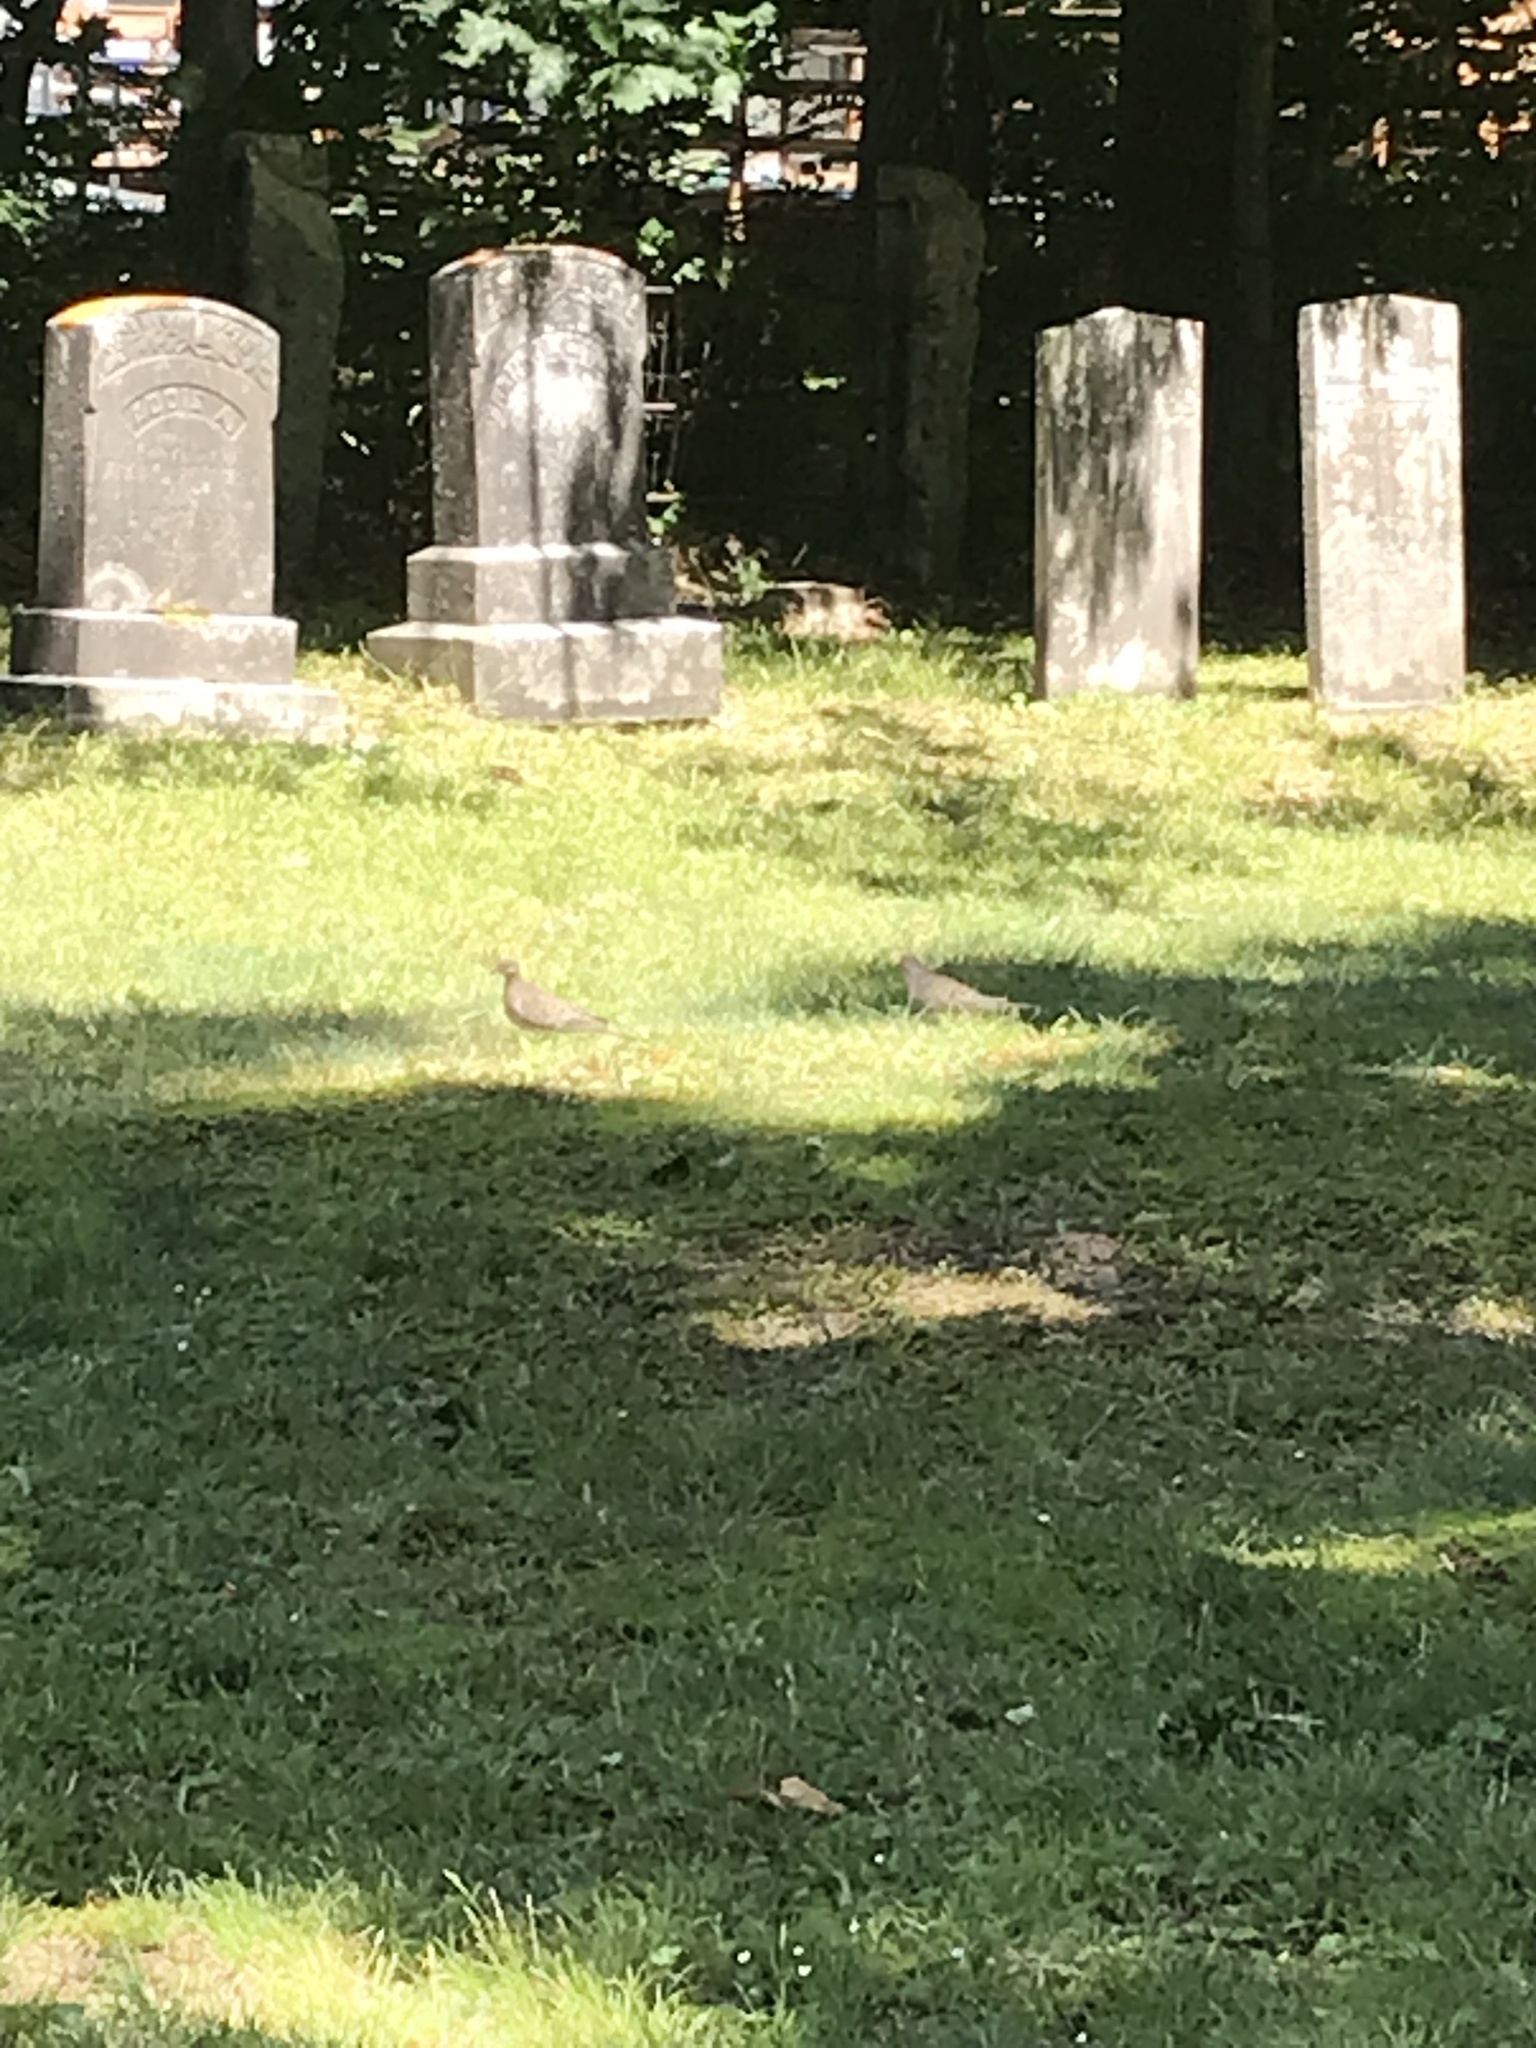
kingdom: Animalia
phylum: Chordata
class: Aves
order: Columbiformes
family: Columbidae
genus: Zenaida
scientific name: Zenaida macroura
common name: Mourning dove
